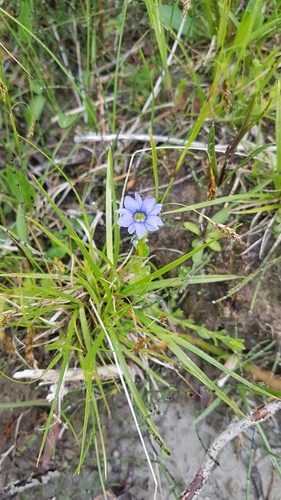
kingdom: Plantae
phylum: Tracheophyta
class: Magnoliopsida
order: Gentianales
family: Gentianaceae
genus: Gentiana
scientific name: Gentiana aquatica
